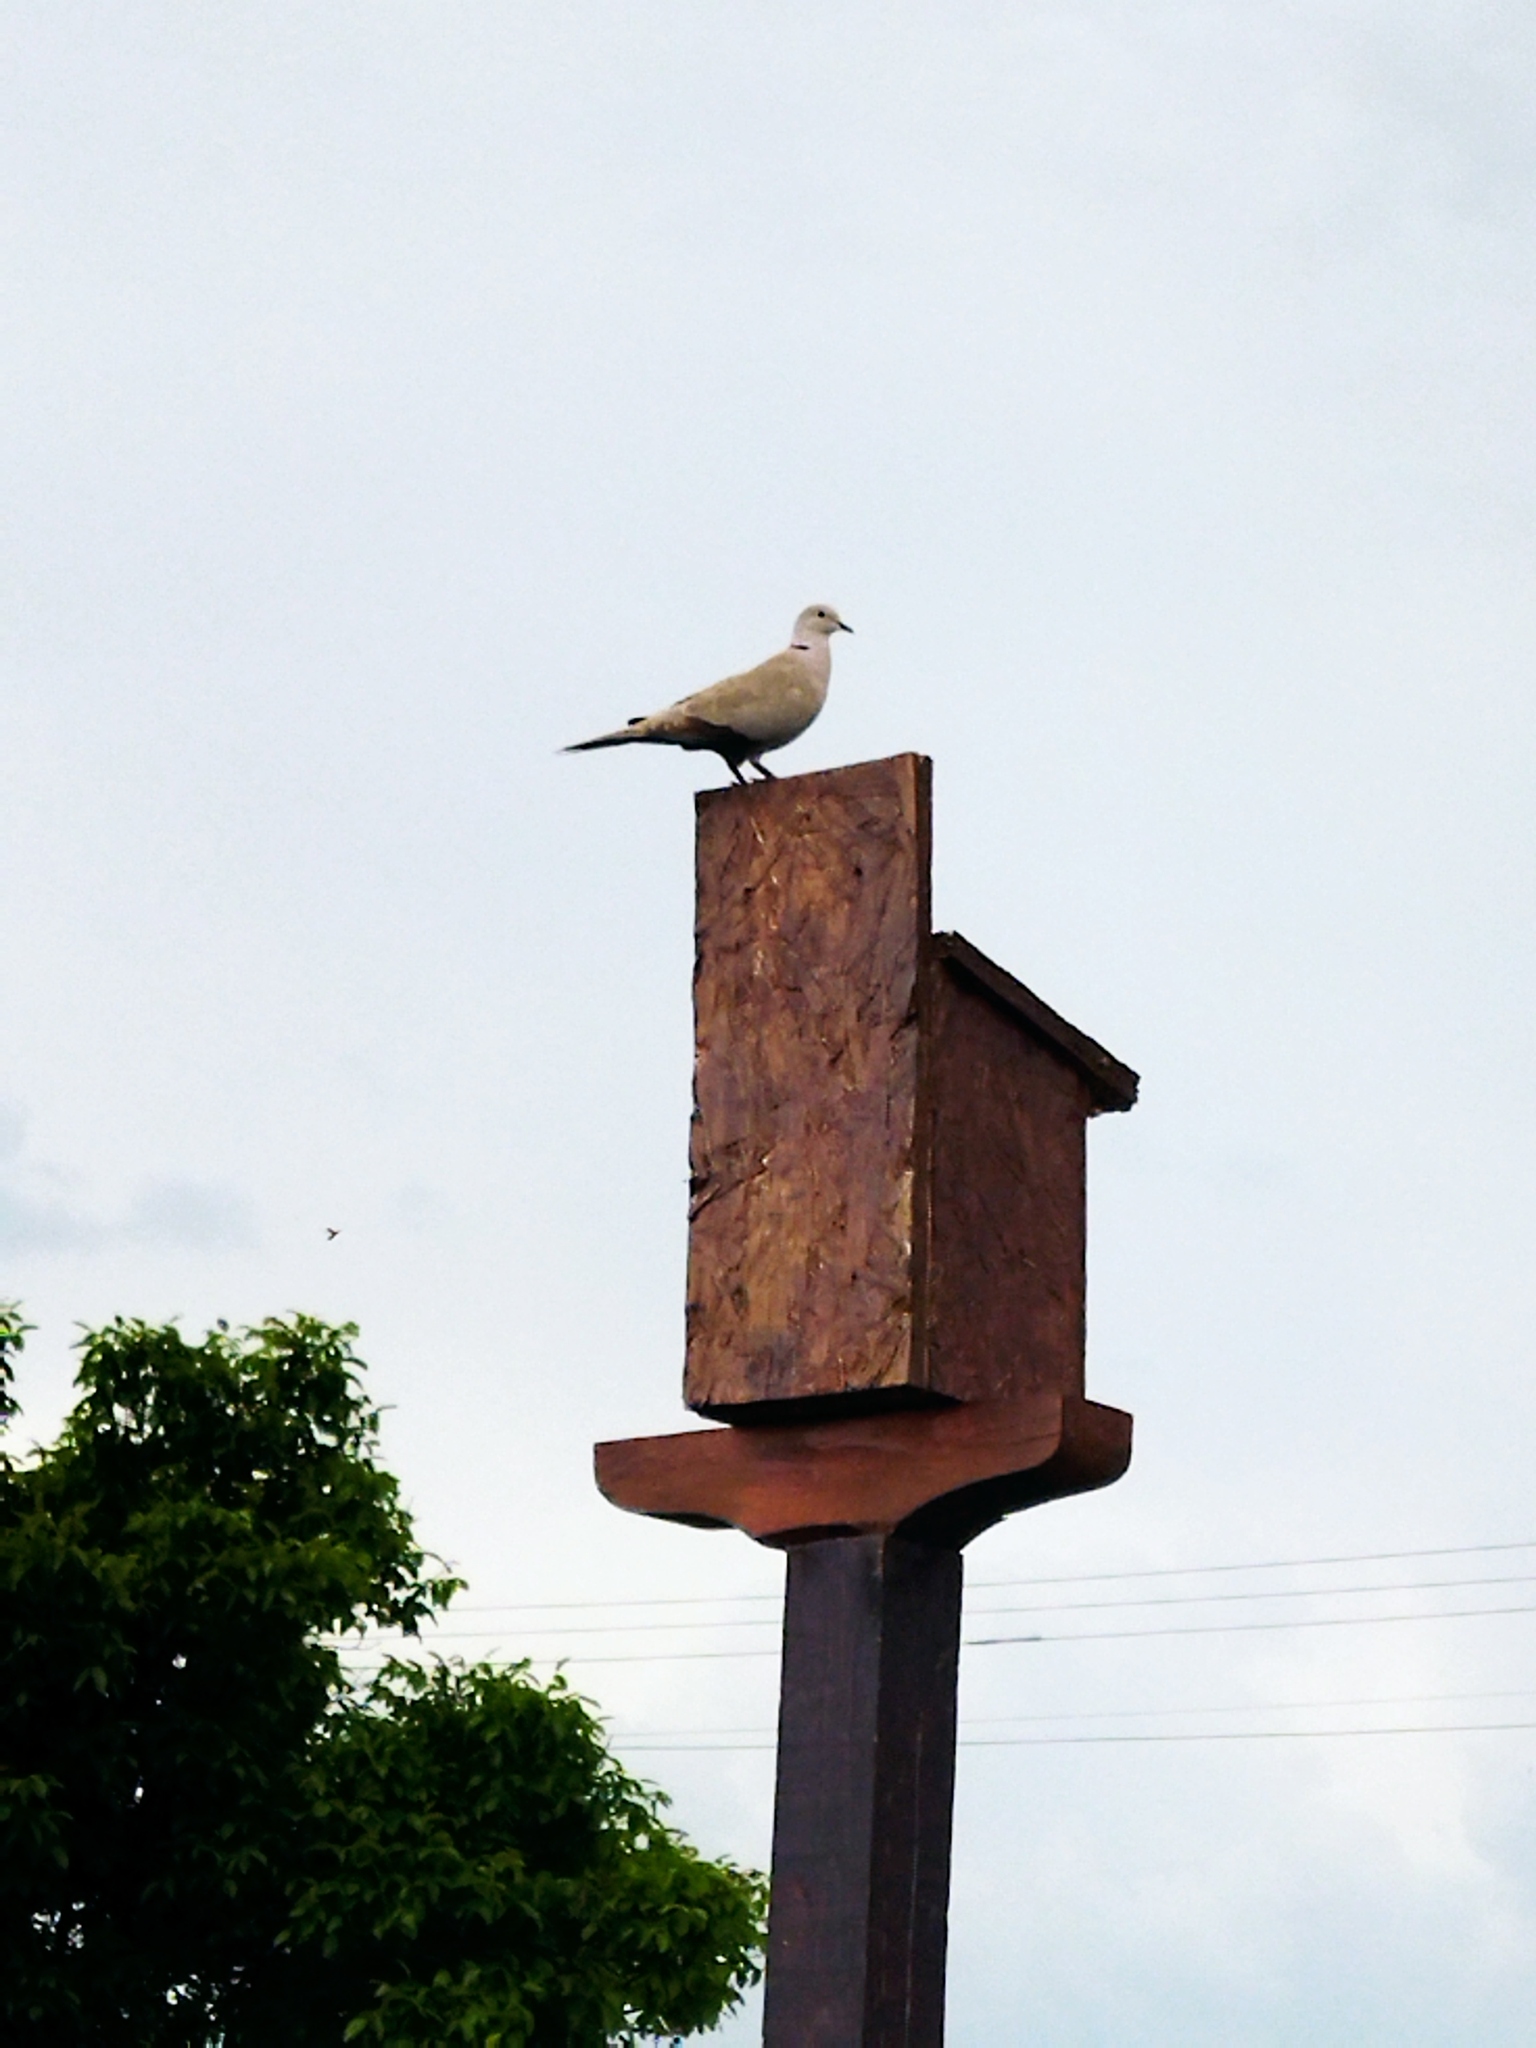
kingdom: Animalia
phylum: Chordata
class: Aves
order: Columbiformes
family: Columbidae
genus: Streptopelia
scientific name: Streptopelia decaocto
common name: Eurasian collared dove
